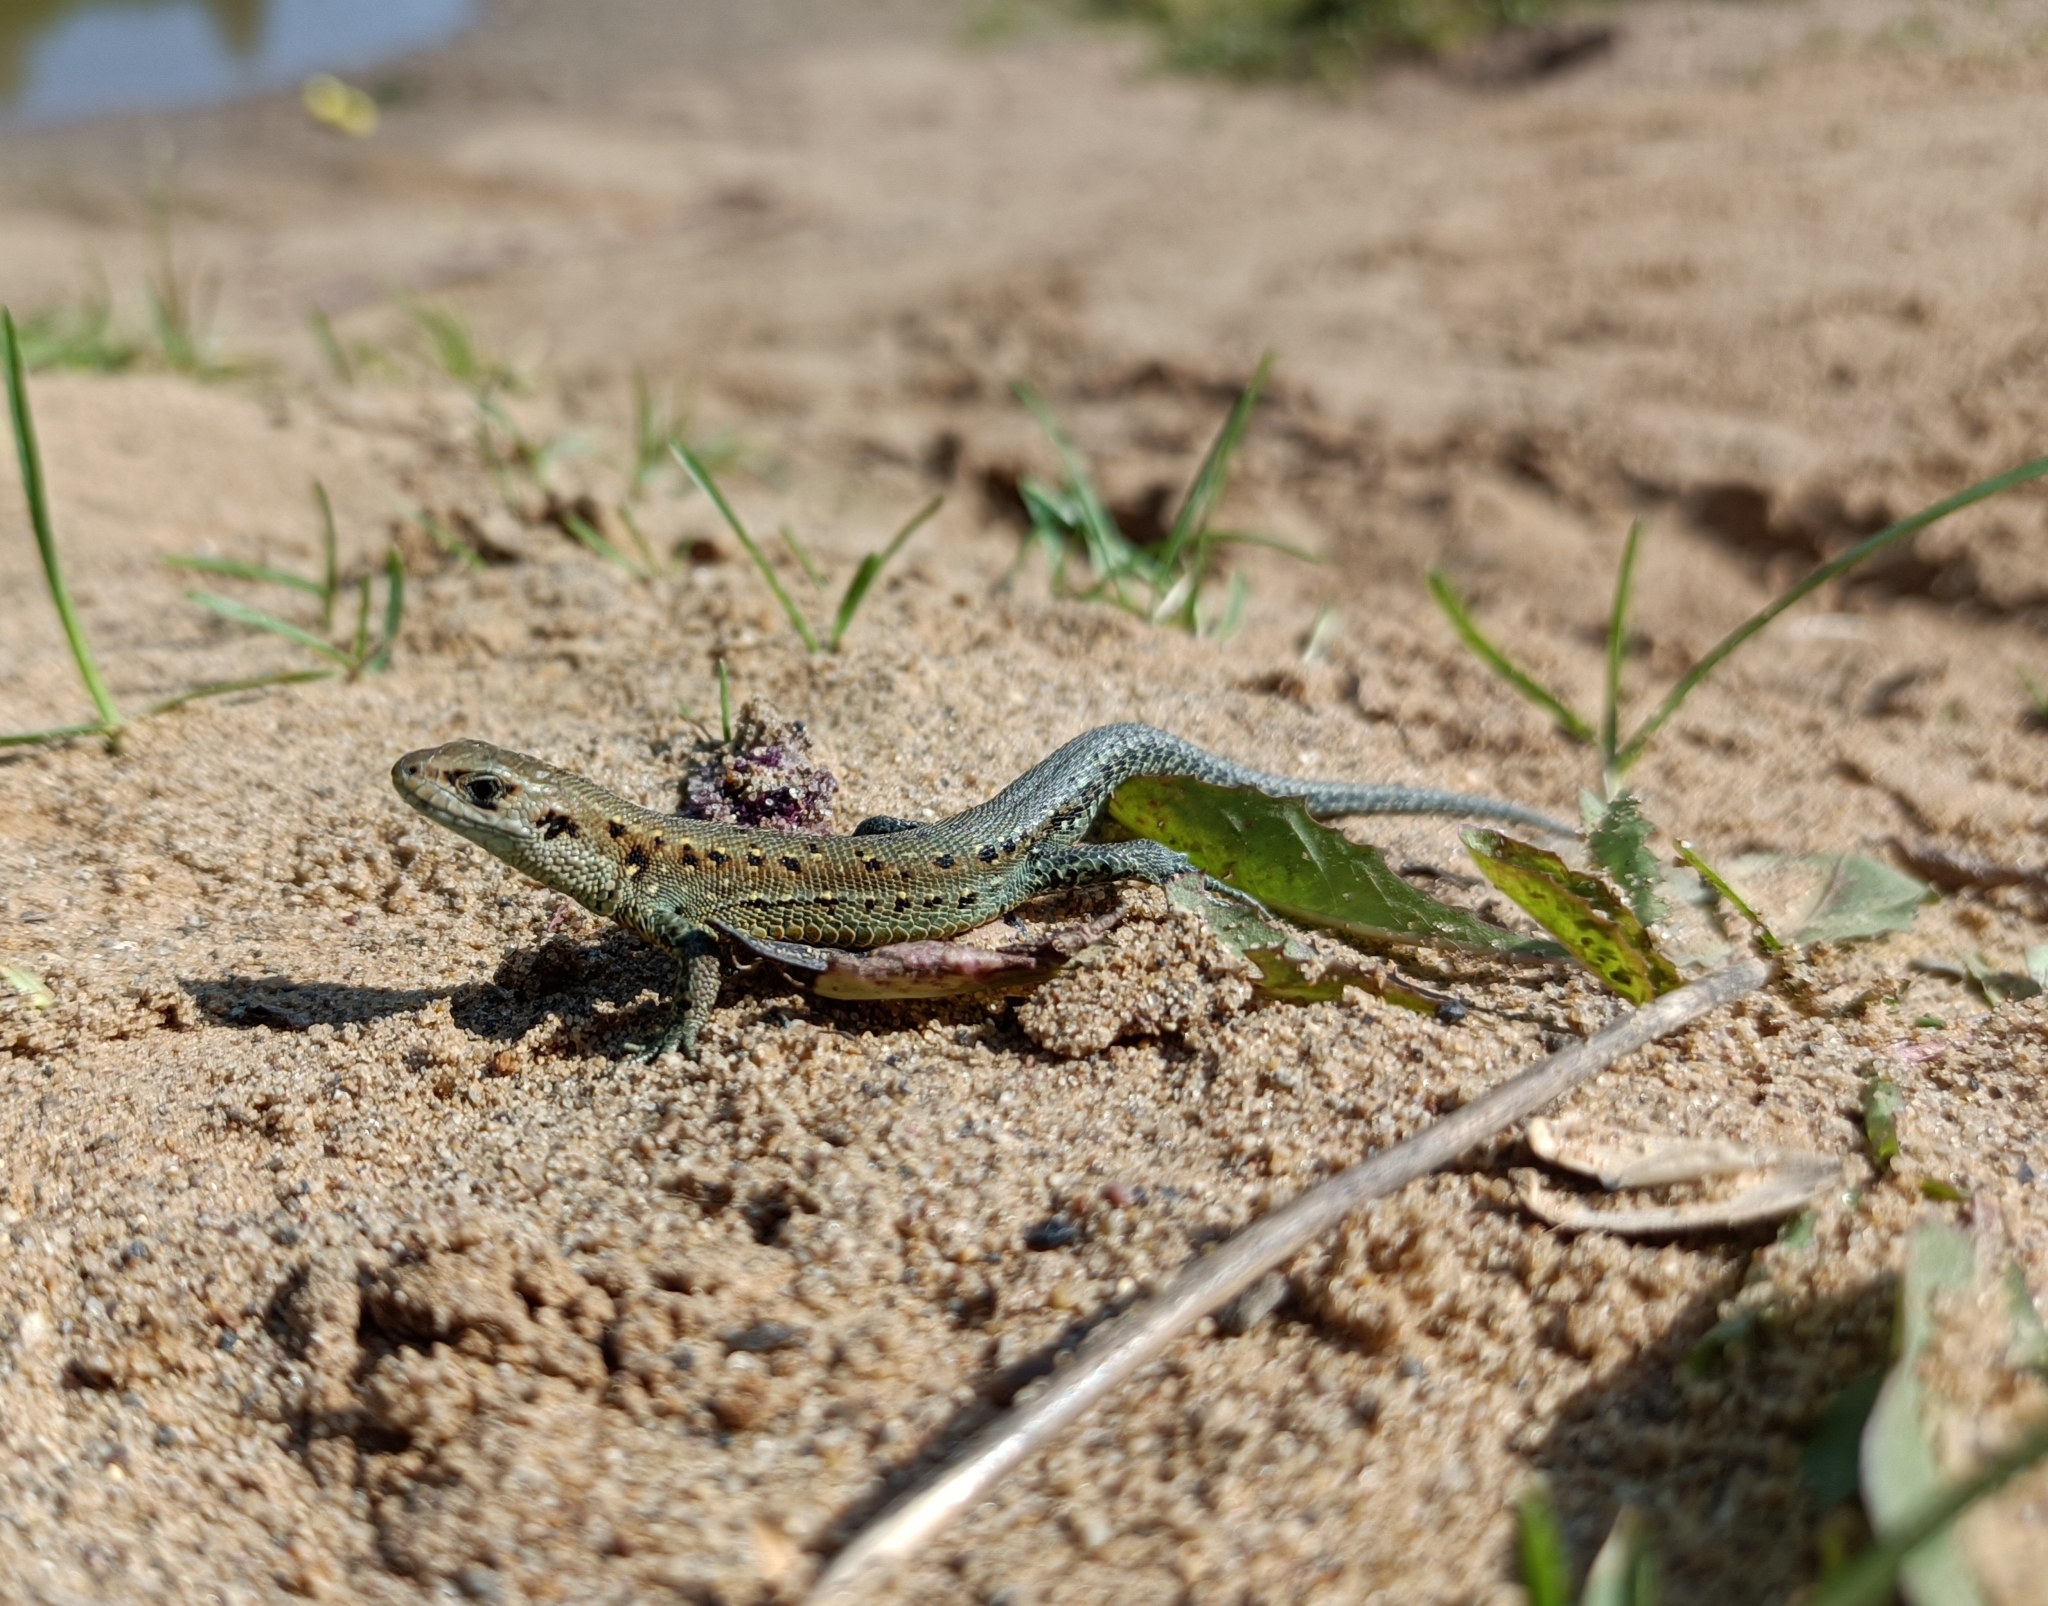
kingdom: Animalia
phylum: Chordata
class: Squamata
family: Lacertidae
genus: Zootoca
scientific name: Zootoca vivipara
